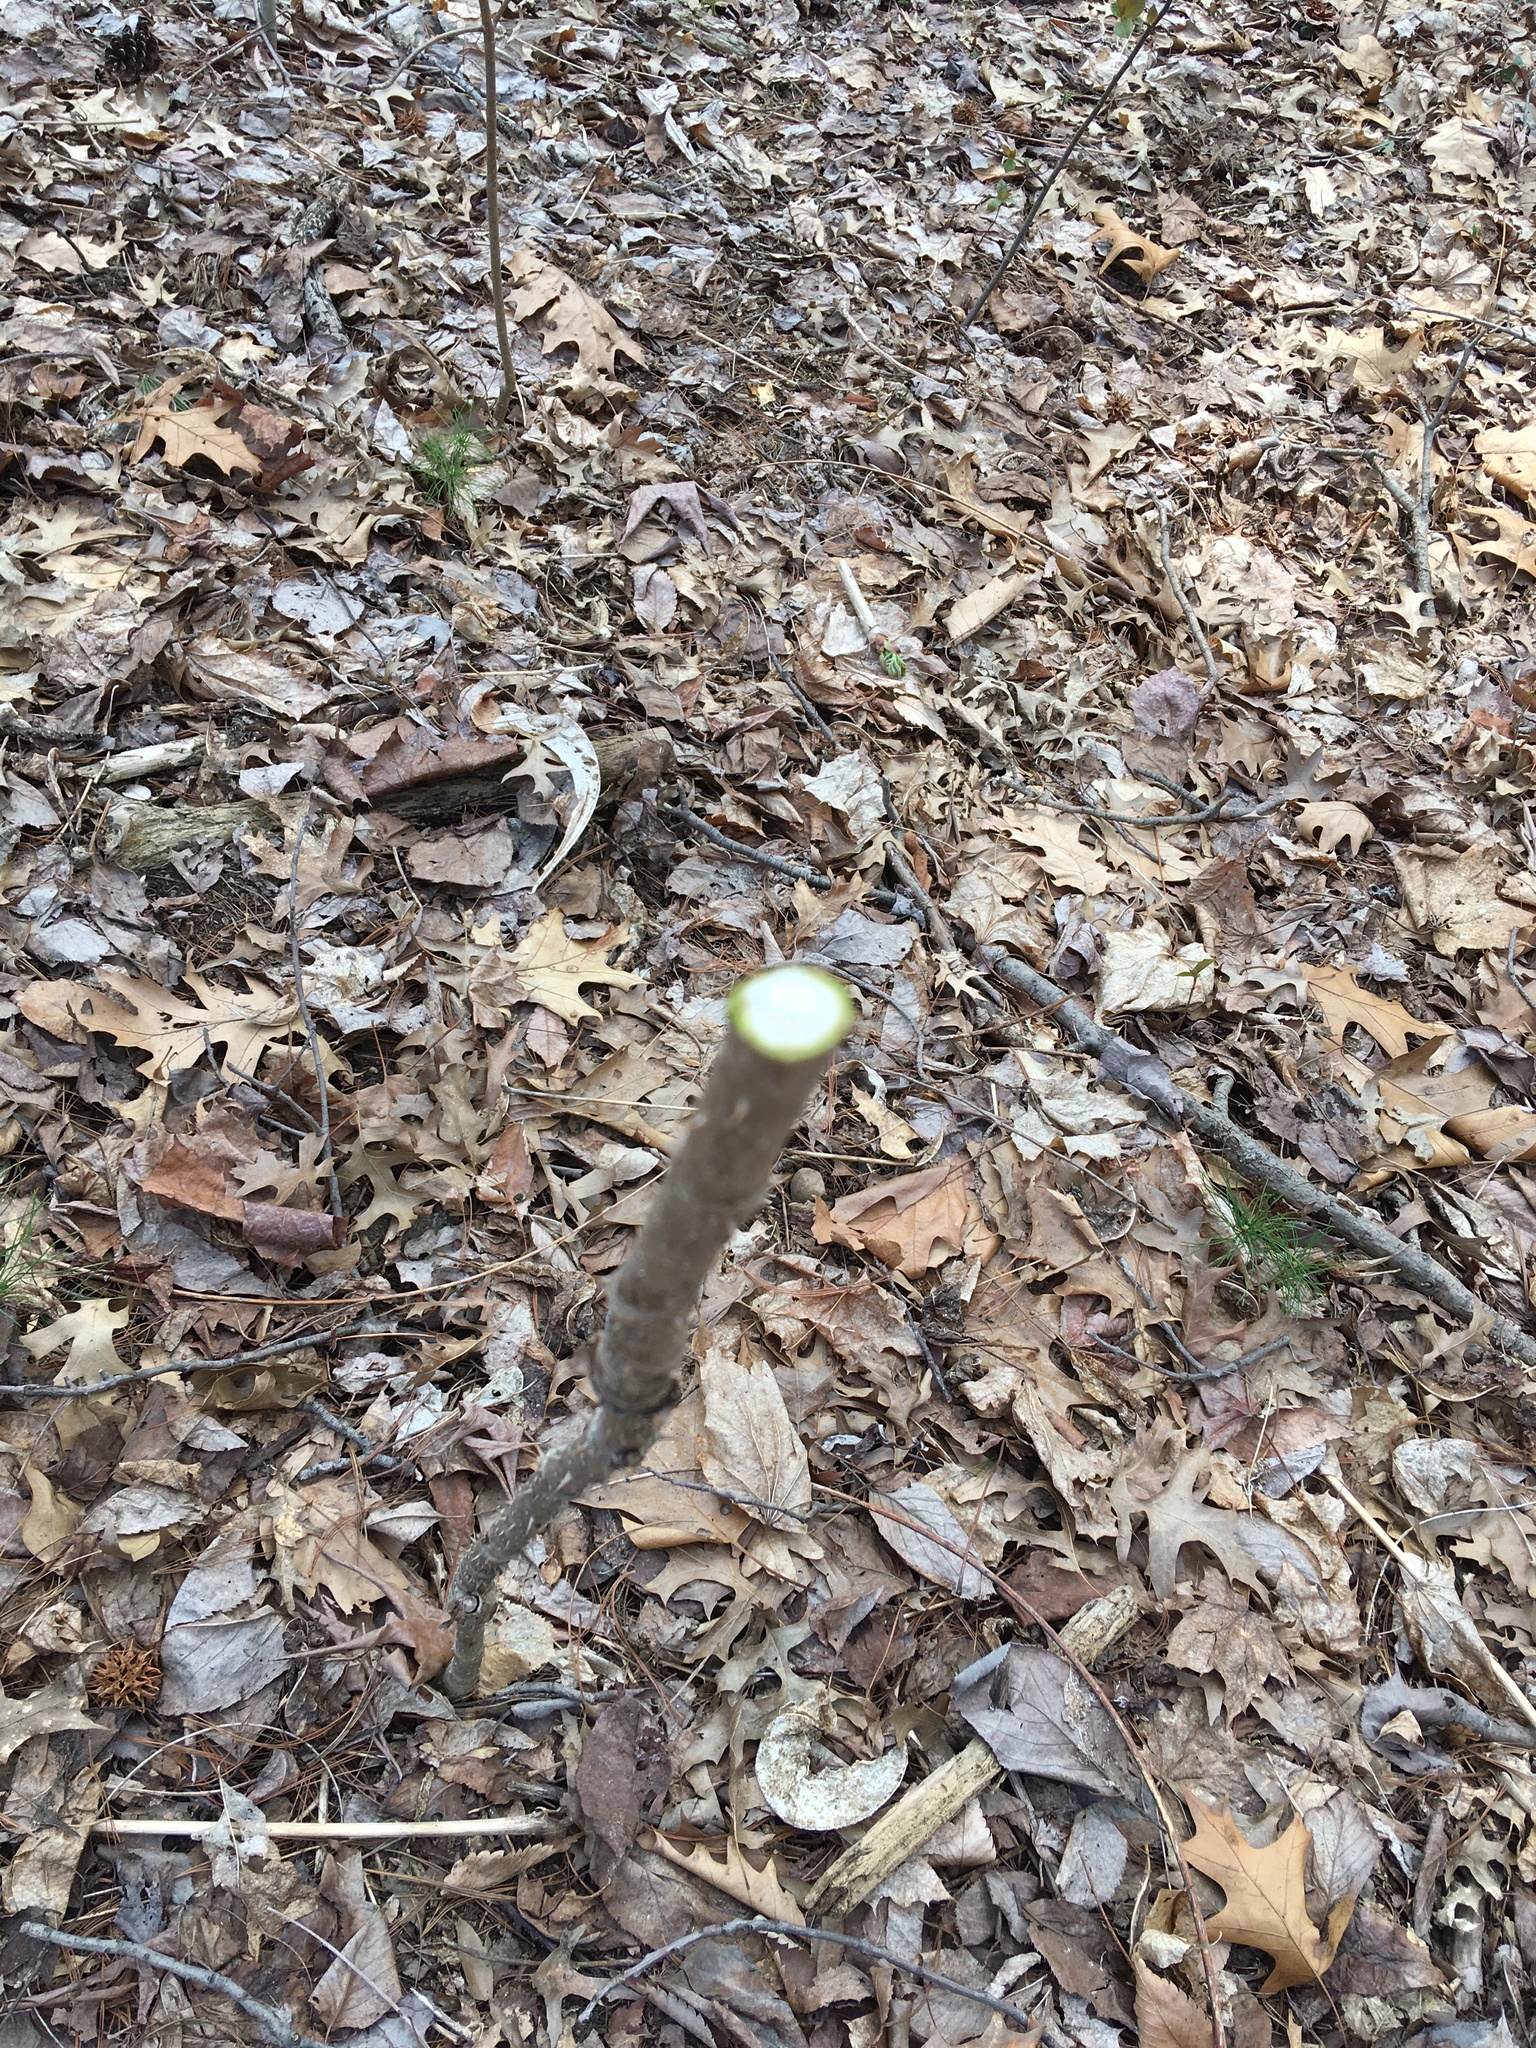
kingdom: Plantae
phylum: Tracheophyta
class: Magnoliopsida
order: Apiales
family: Araliaceae
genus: Aralia
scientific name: Aralia elata
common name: Japanese angelica-tree
